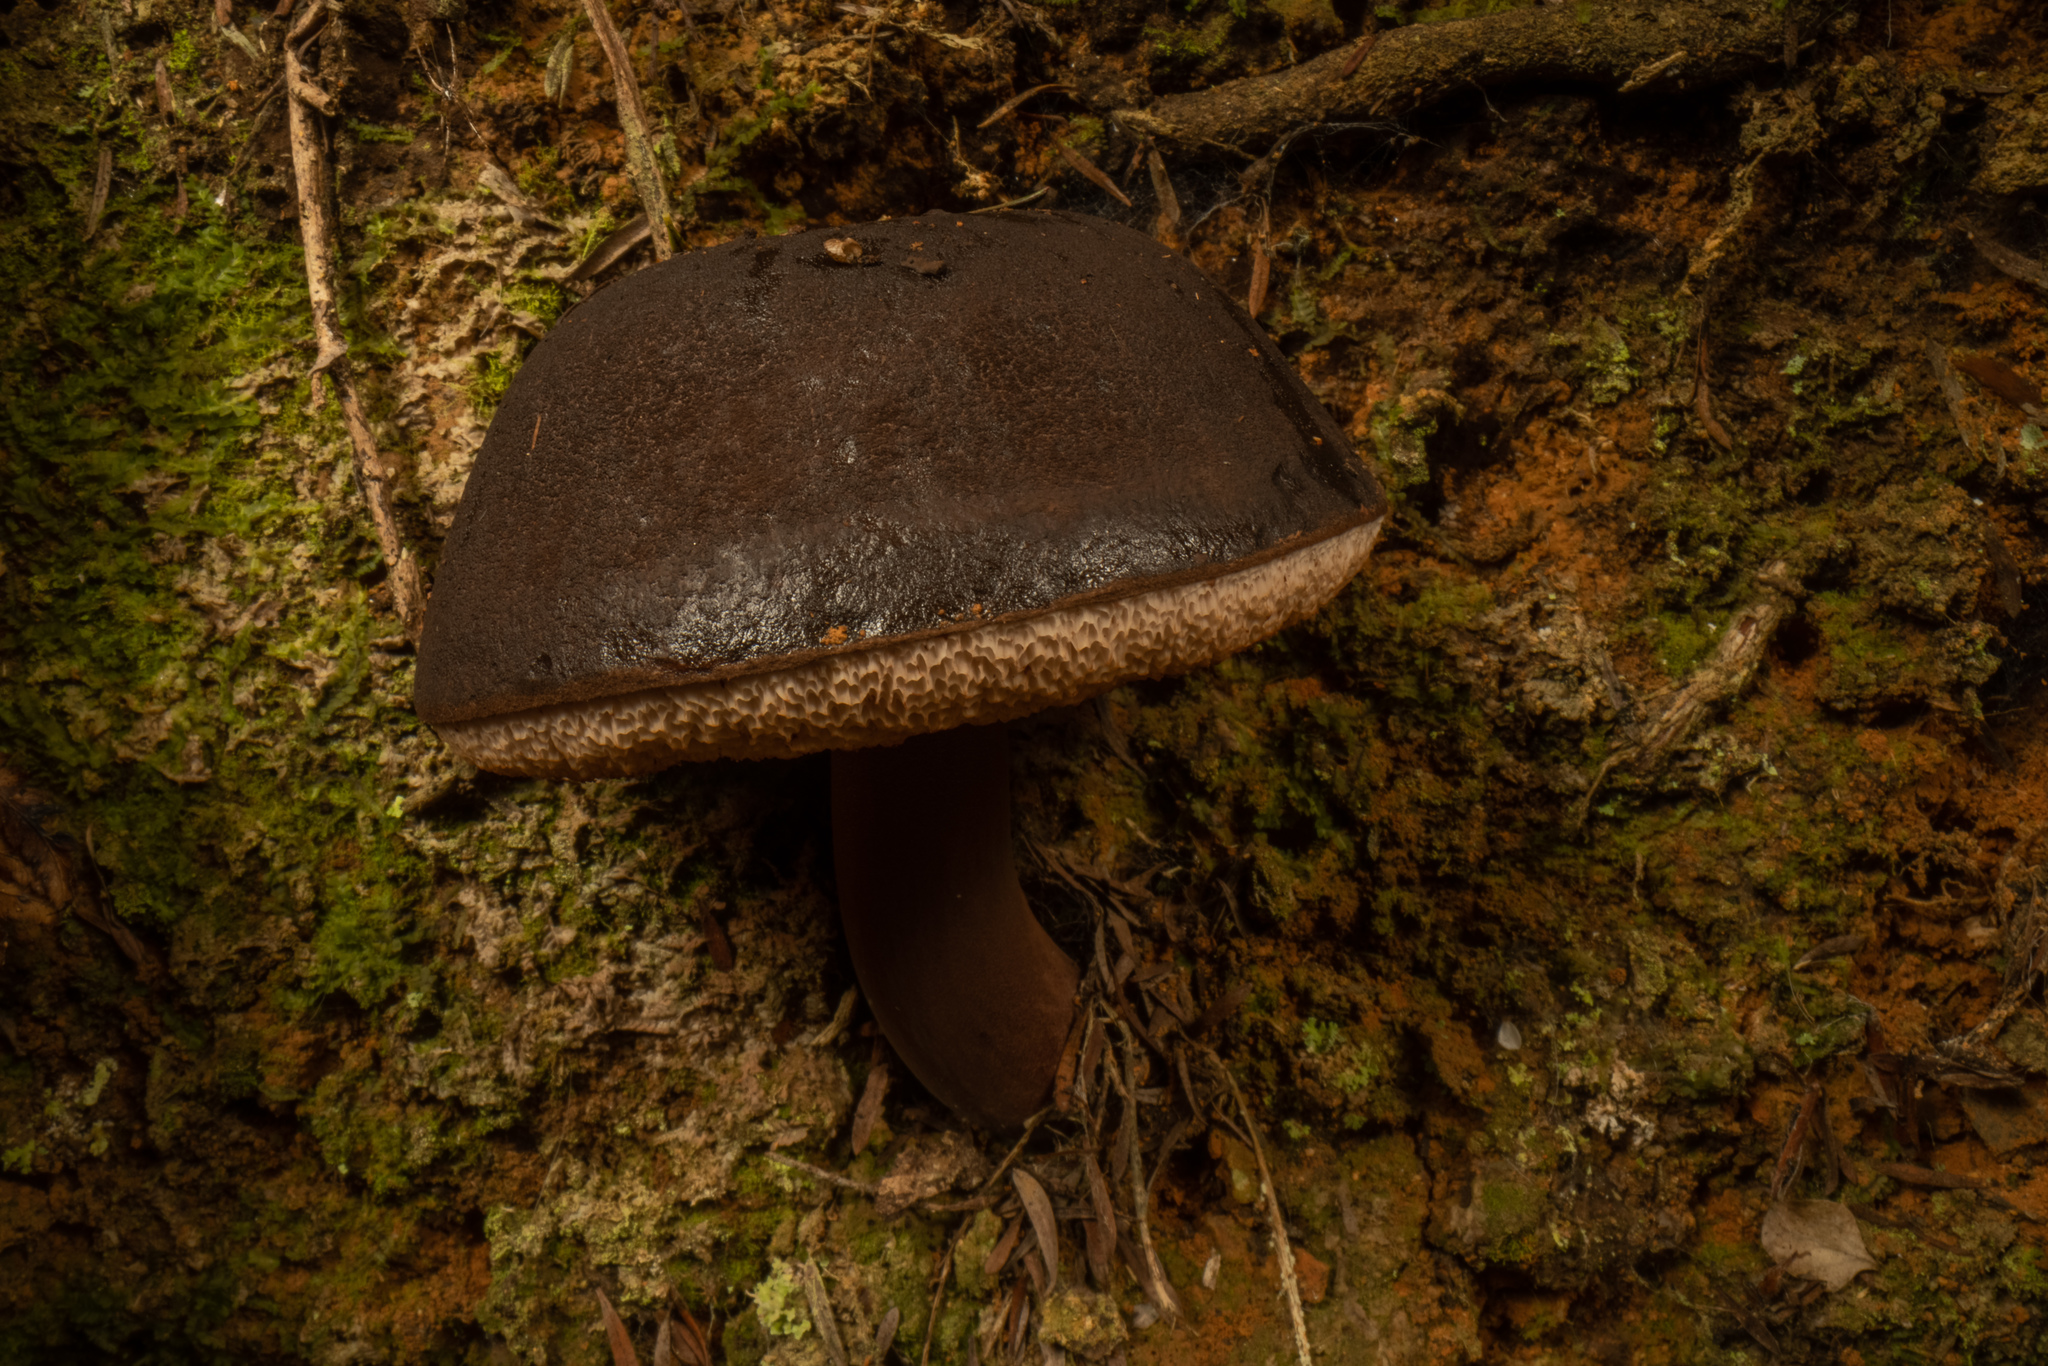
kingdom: Fungi
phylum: Basidiomycota
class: Agaricomycetes
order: Boletales
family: Boletaceae
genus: Porphyrellus
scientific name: Porphyrellus formosus
